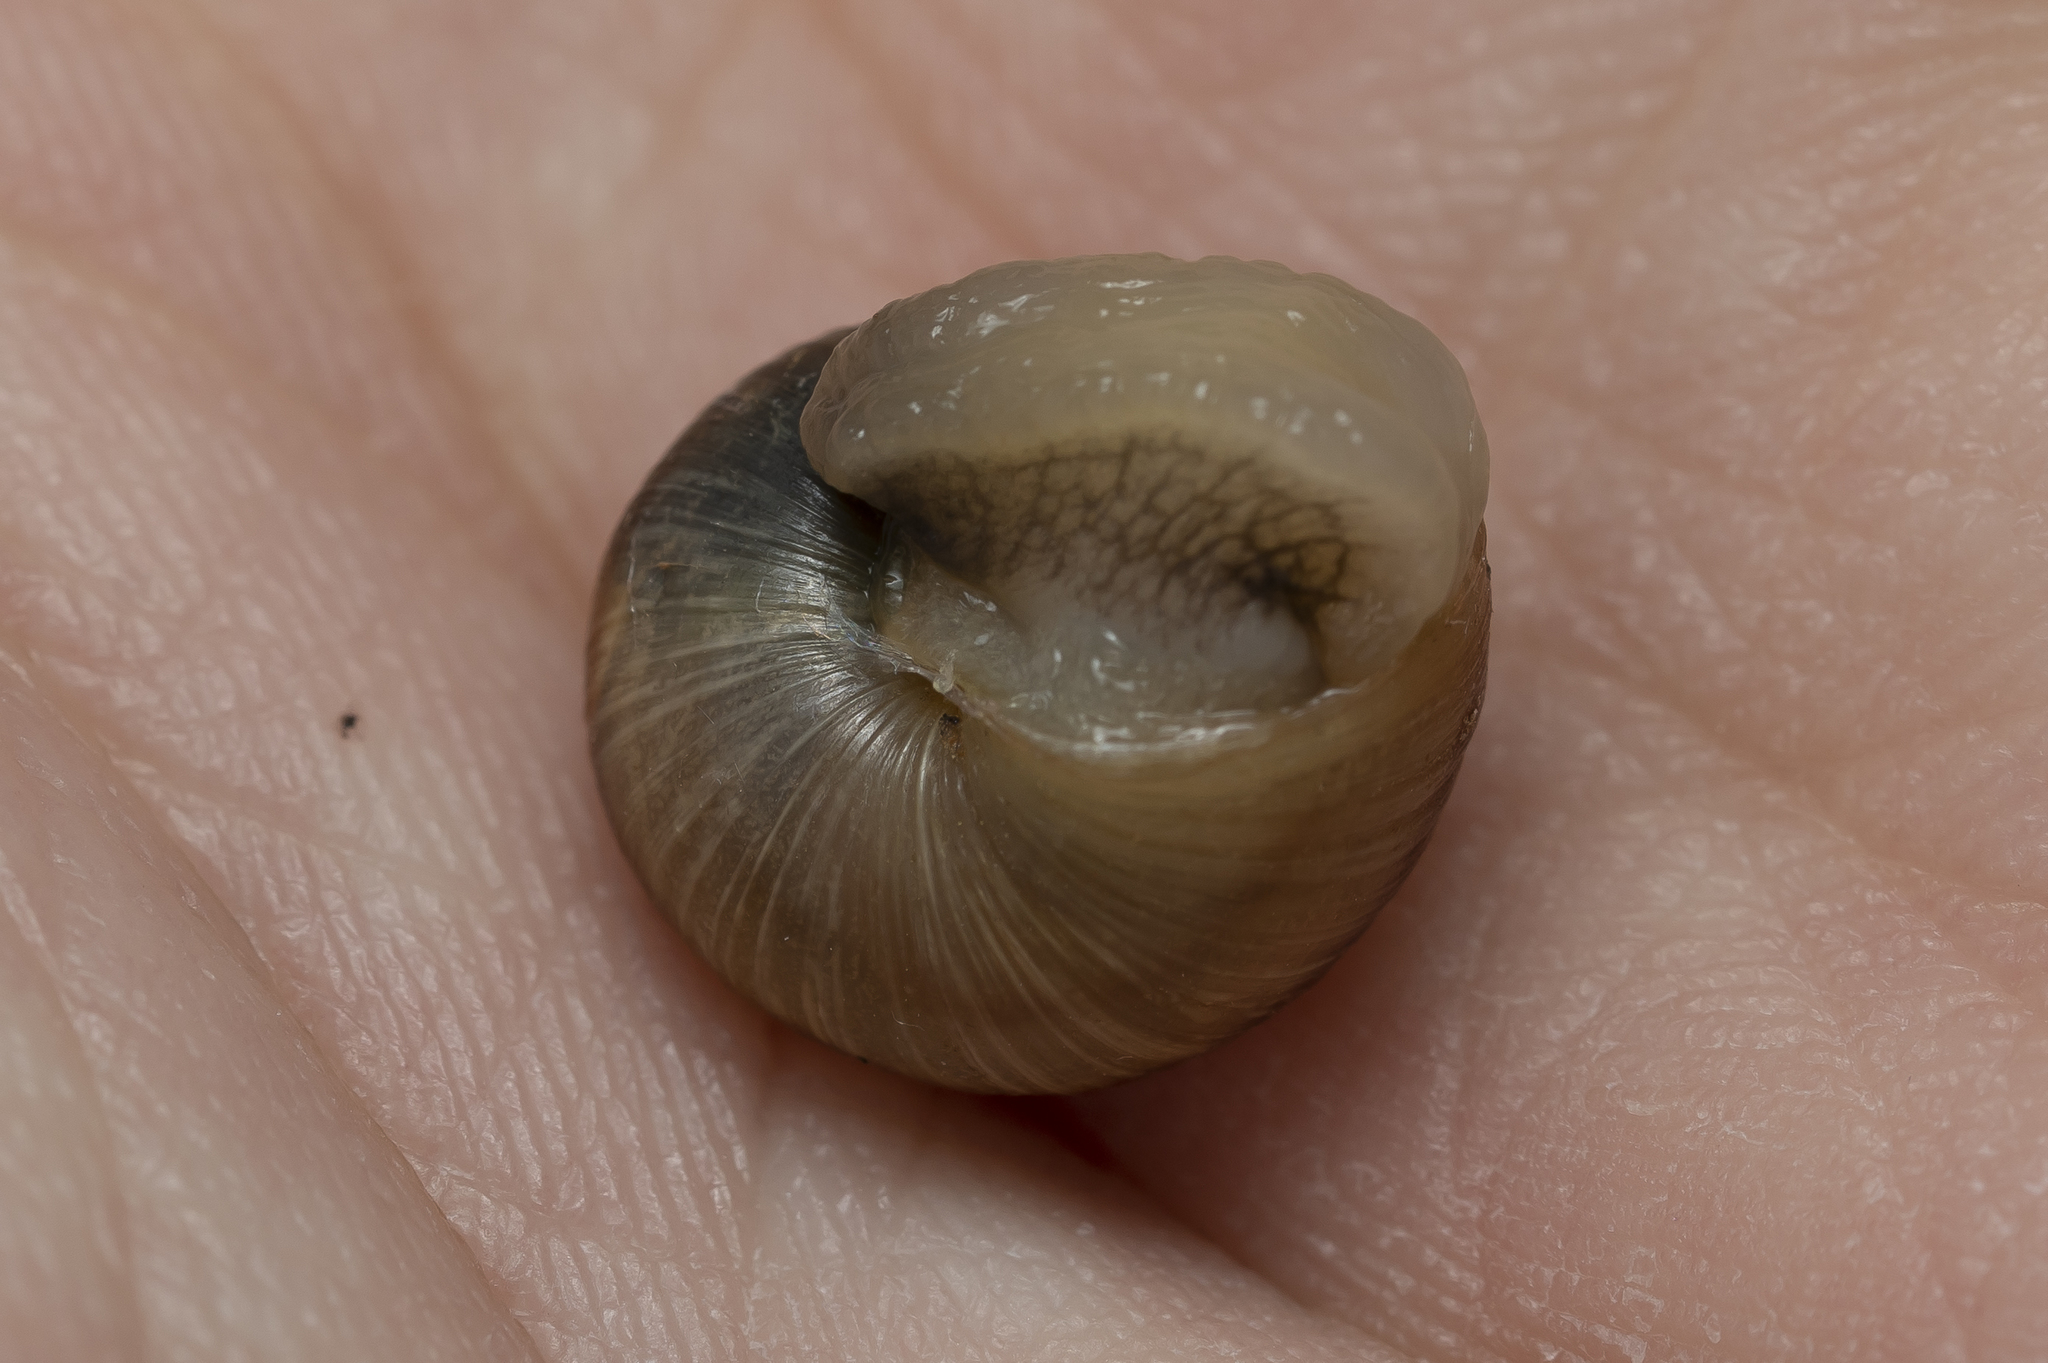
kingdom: Animalia
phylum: Mollusca
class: Gastropoda
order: Stylommatophora
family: Helicidae
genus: Helix
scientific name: Helix
